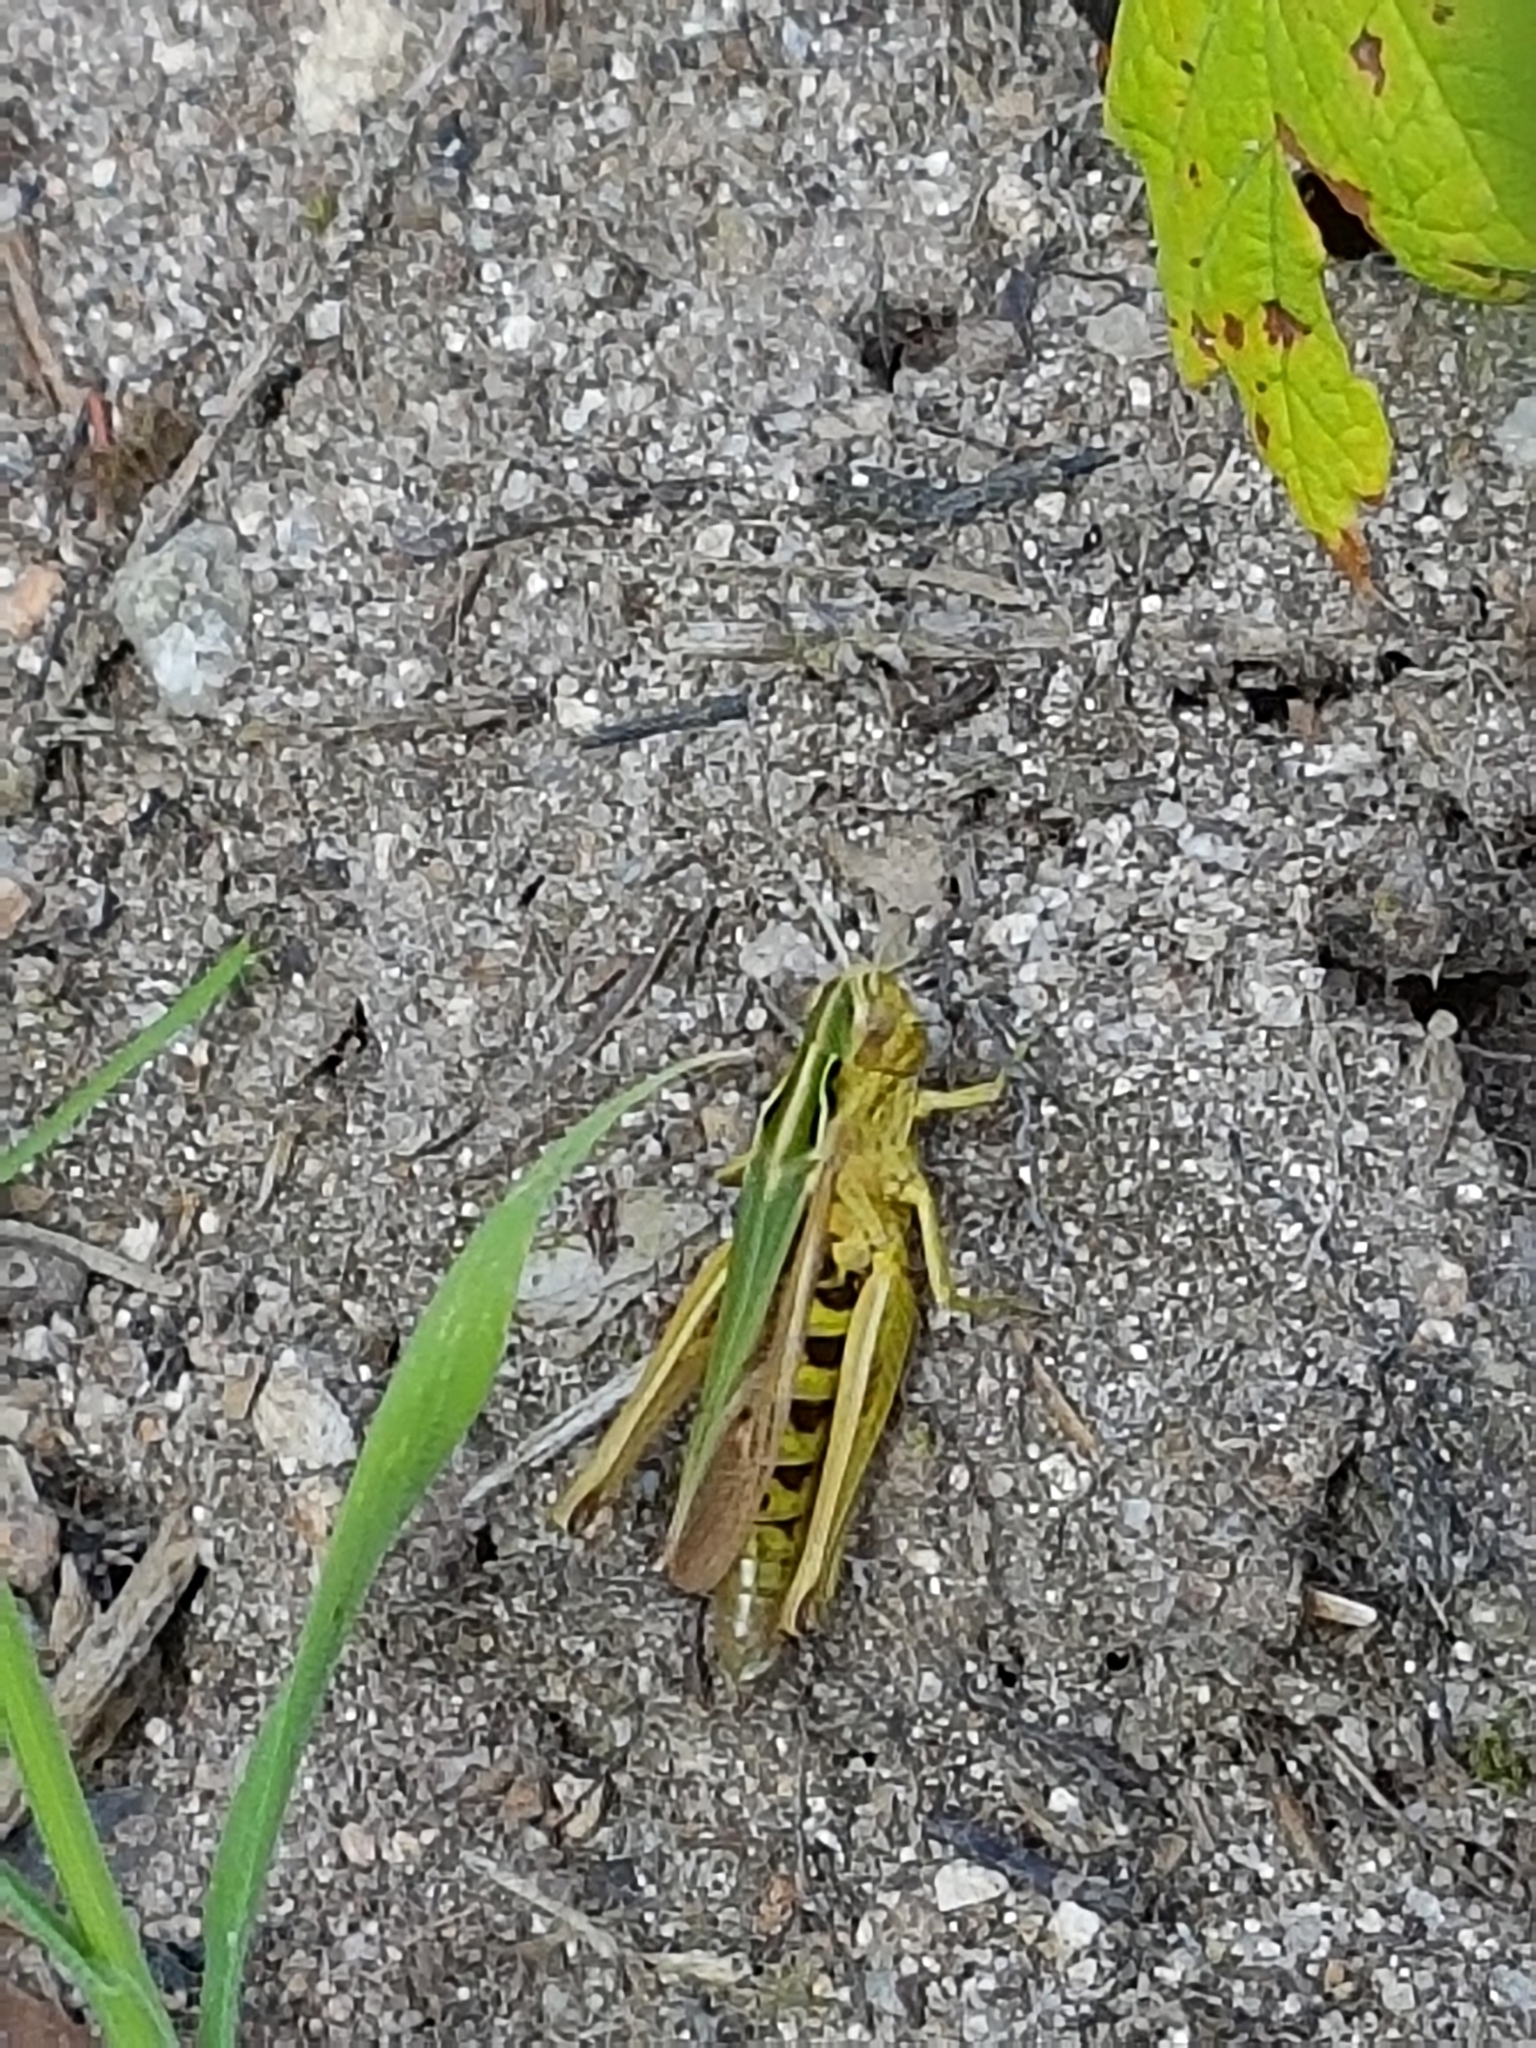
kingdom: Animalia
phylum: Arthropoda
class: Insecta
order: Orthoptera
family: Acrididae
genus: Omocestus
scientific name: Omocestus viridulus
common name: Common green grasshopper
